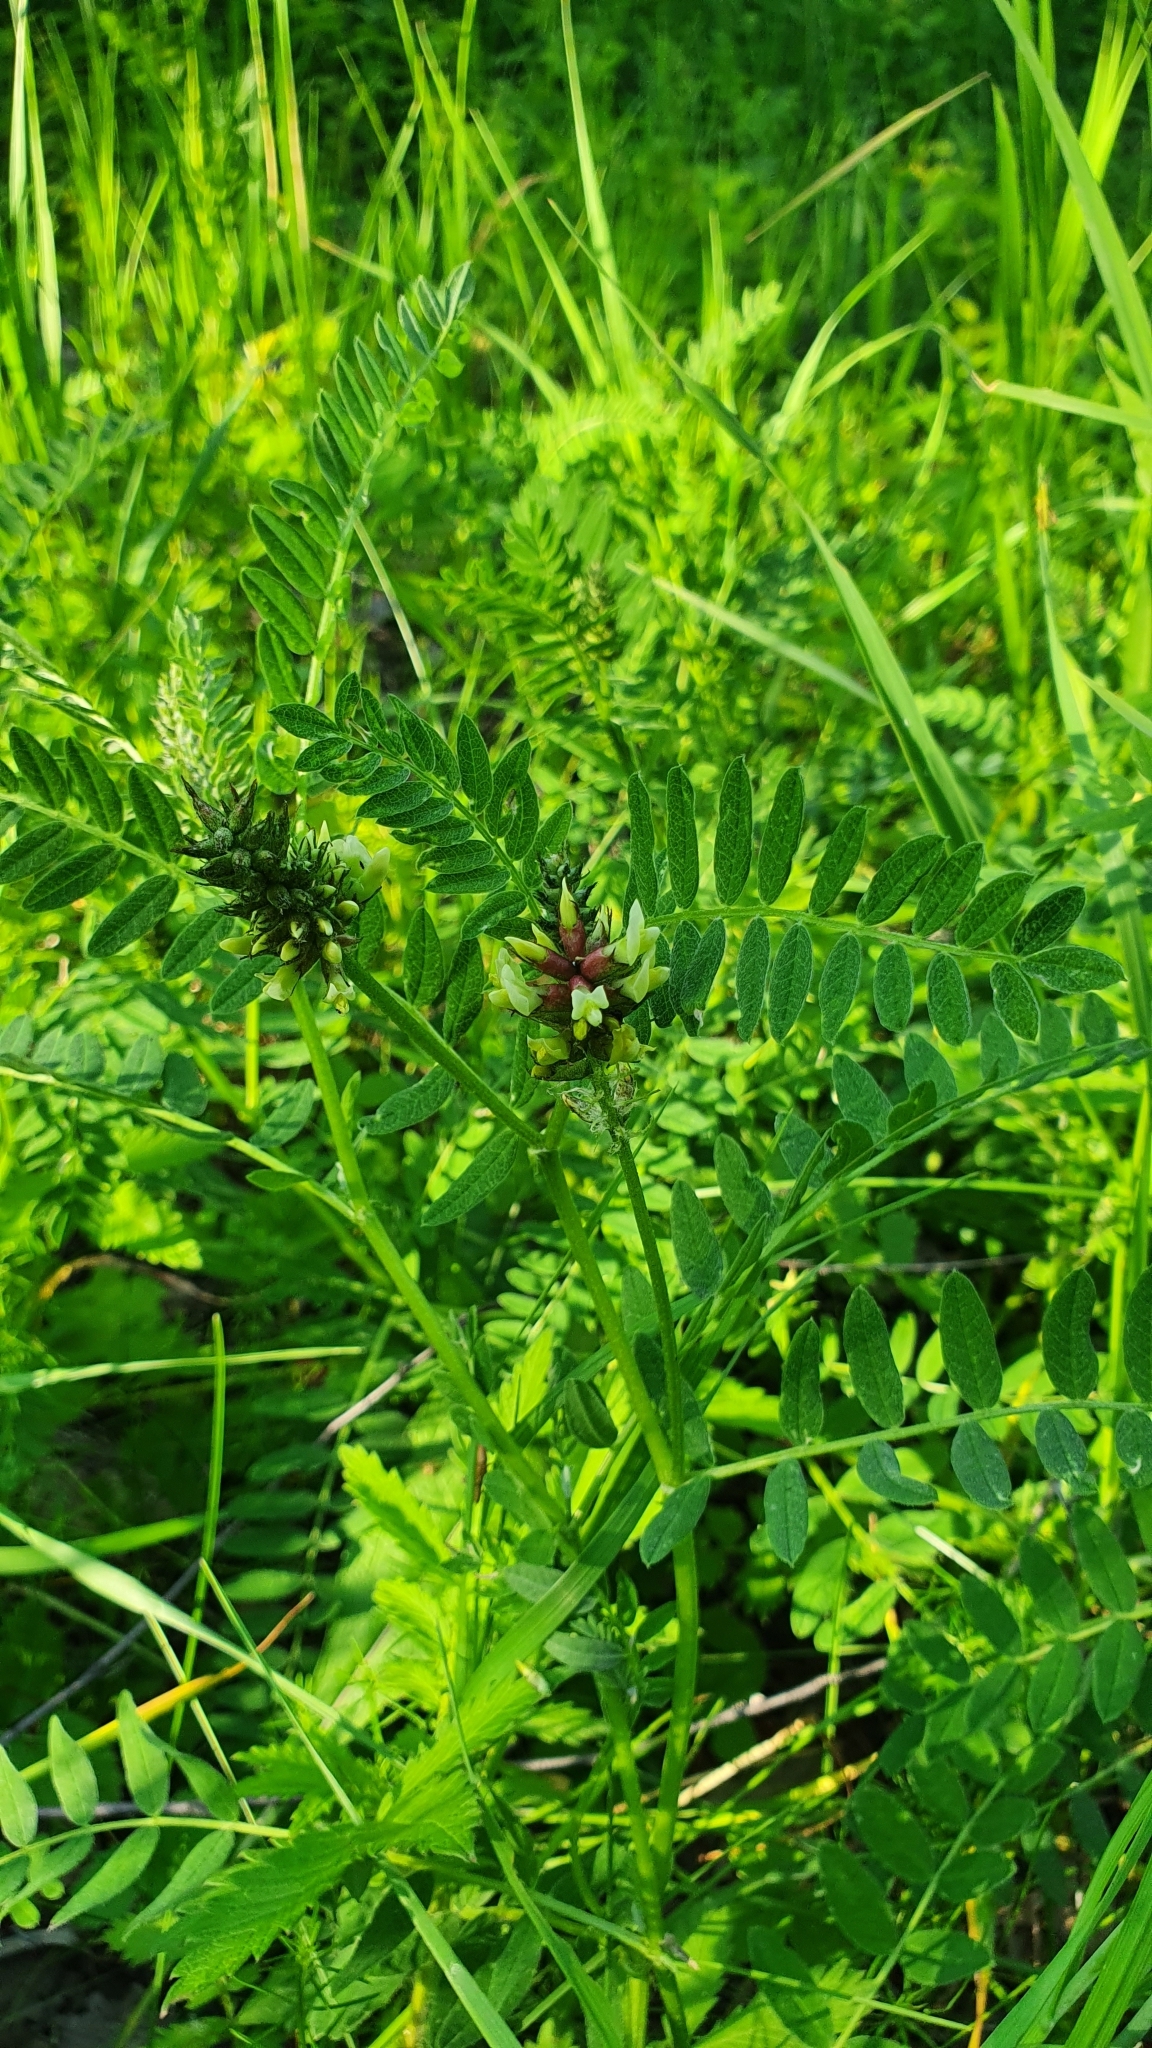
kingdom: Plantae
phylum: Tracheophyta
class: Magnoliopsida
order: Fabales
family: Fabaceae
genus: Astragalus
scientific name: Astragalus cicer
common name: Chick-pea milk-vetch
